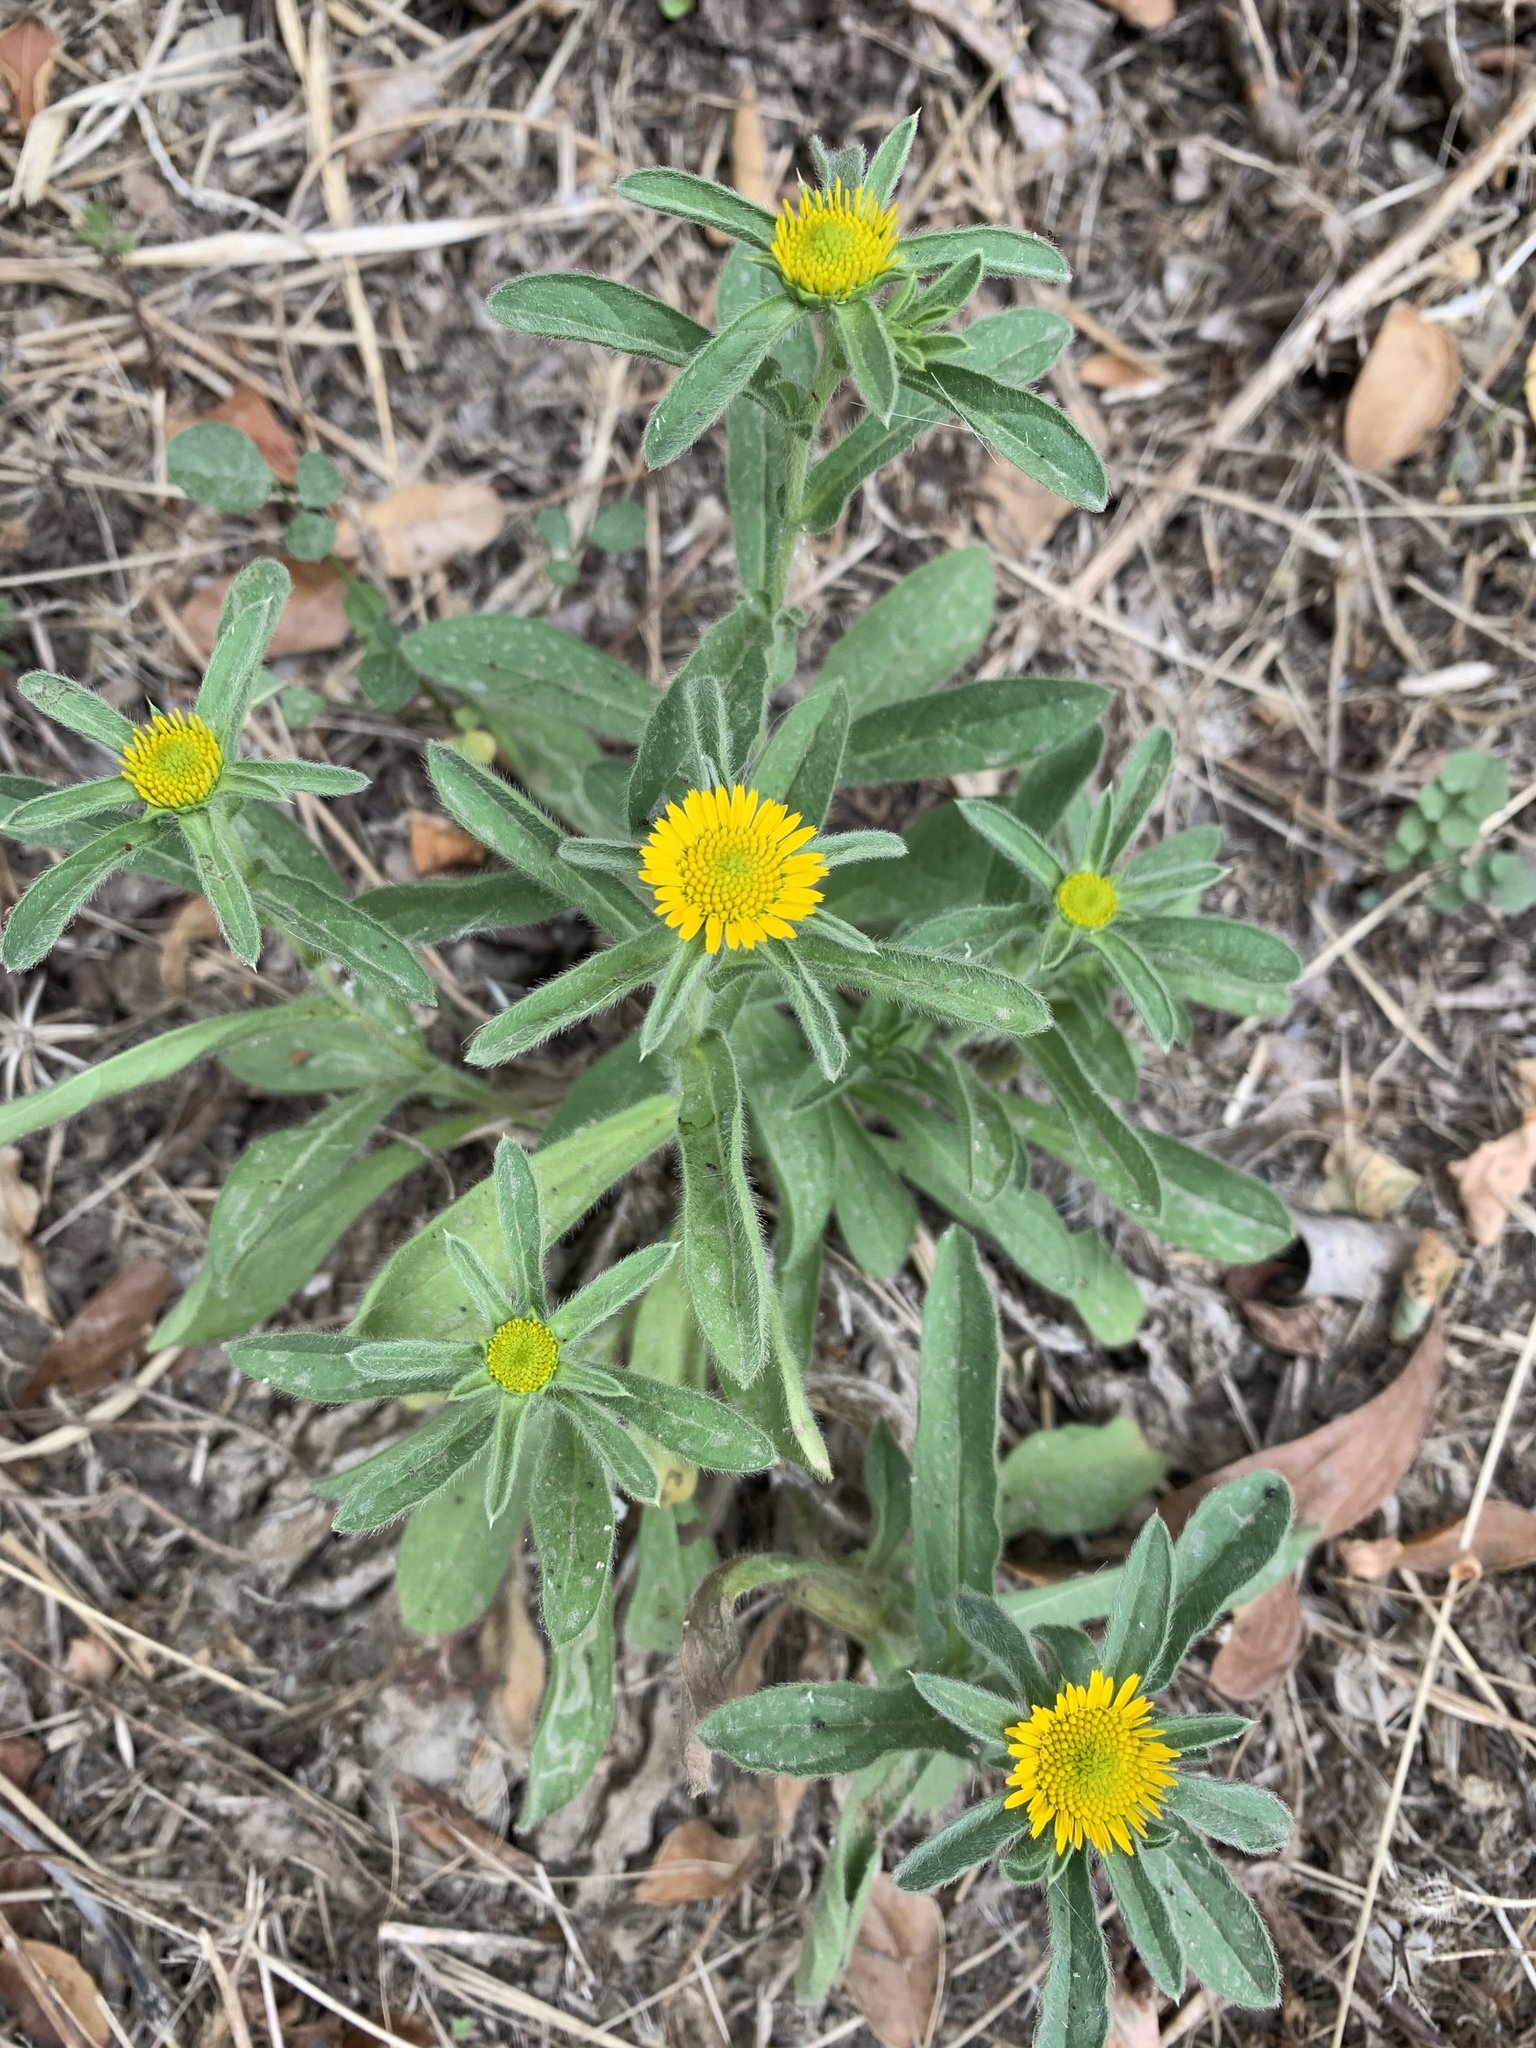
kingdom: Plantae
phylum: Tracheophyta
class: Magnoliopsida
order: Asterales
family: Asteraceae
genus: Pallenis
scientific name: Pallenis spinosa
